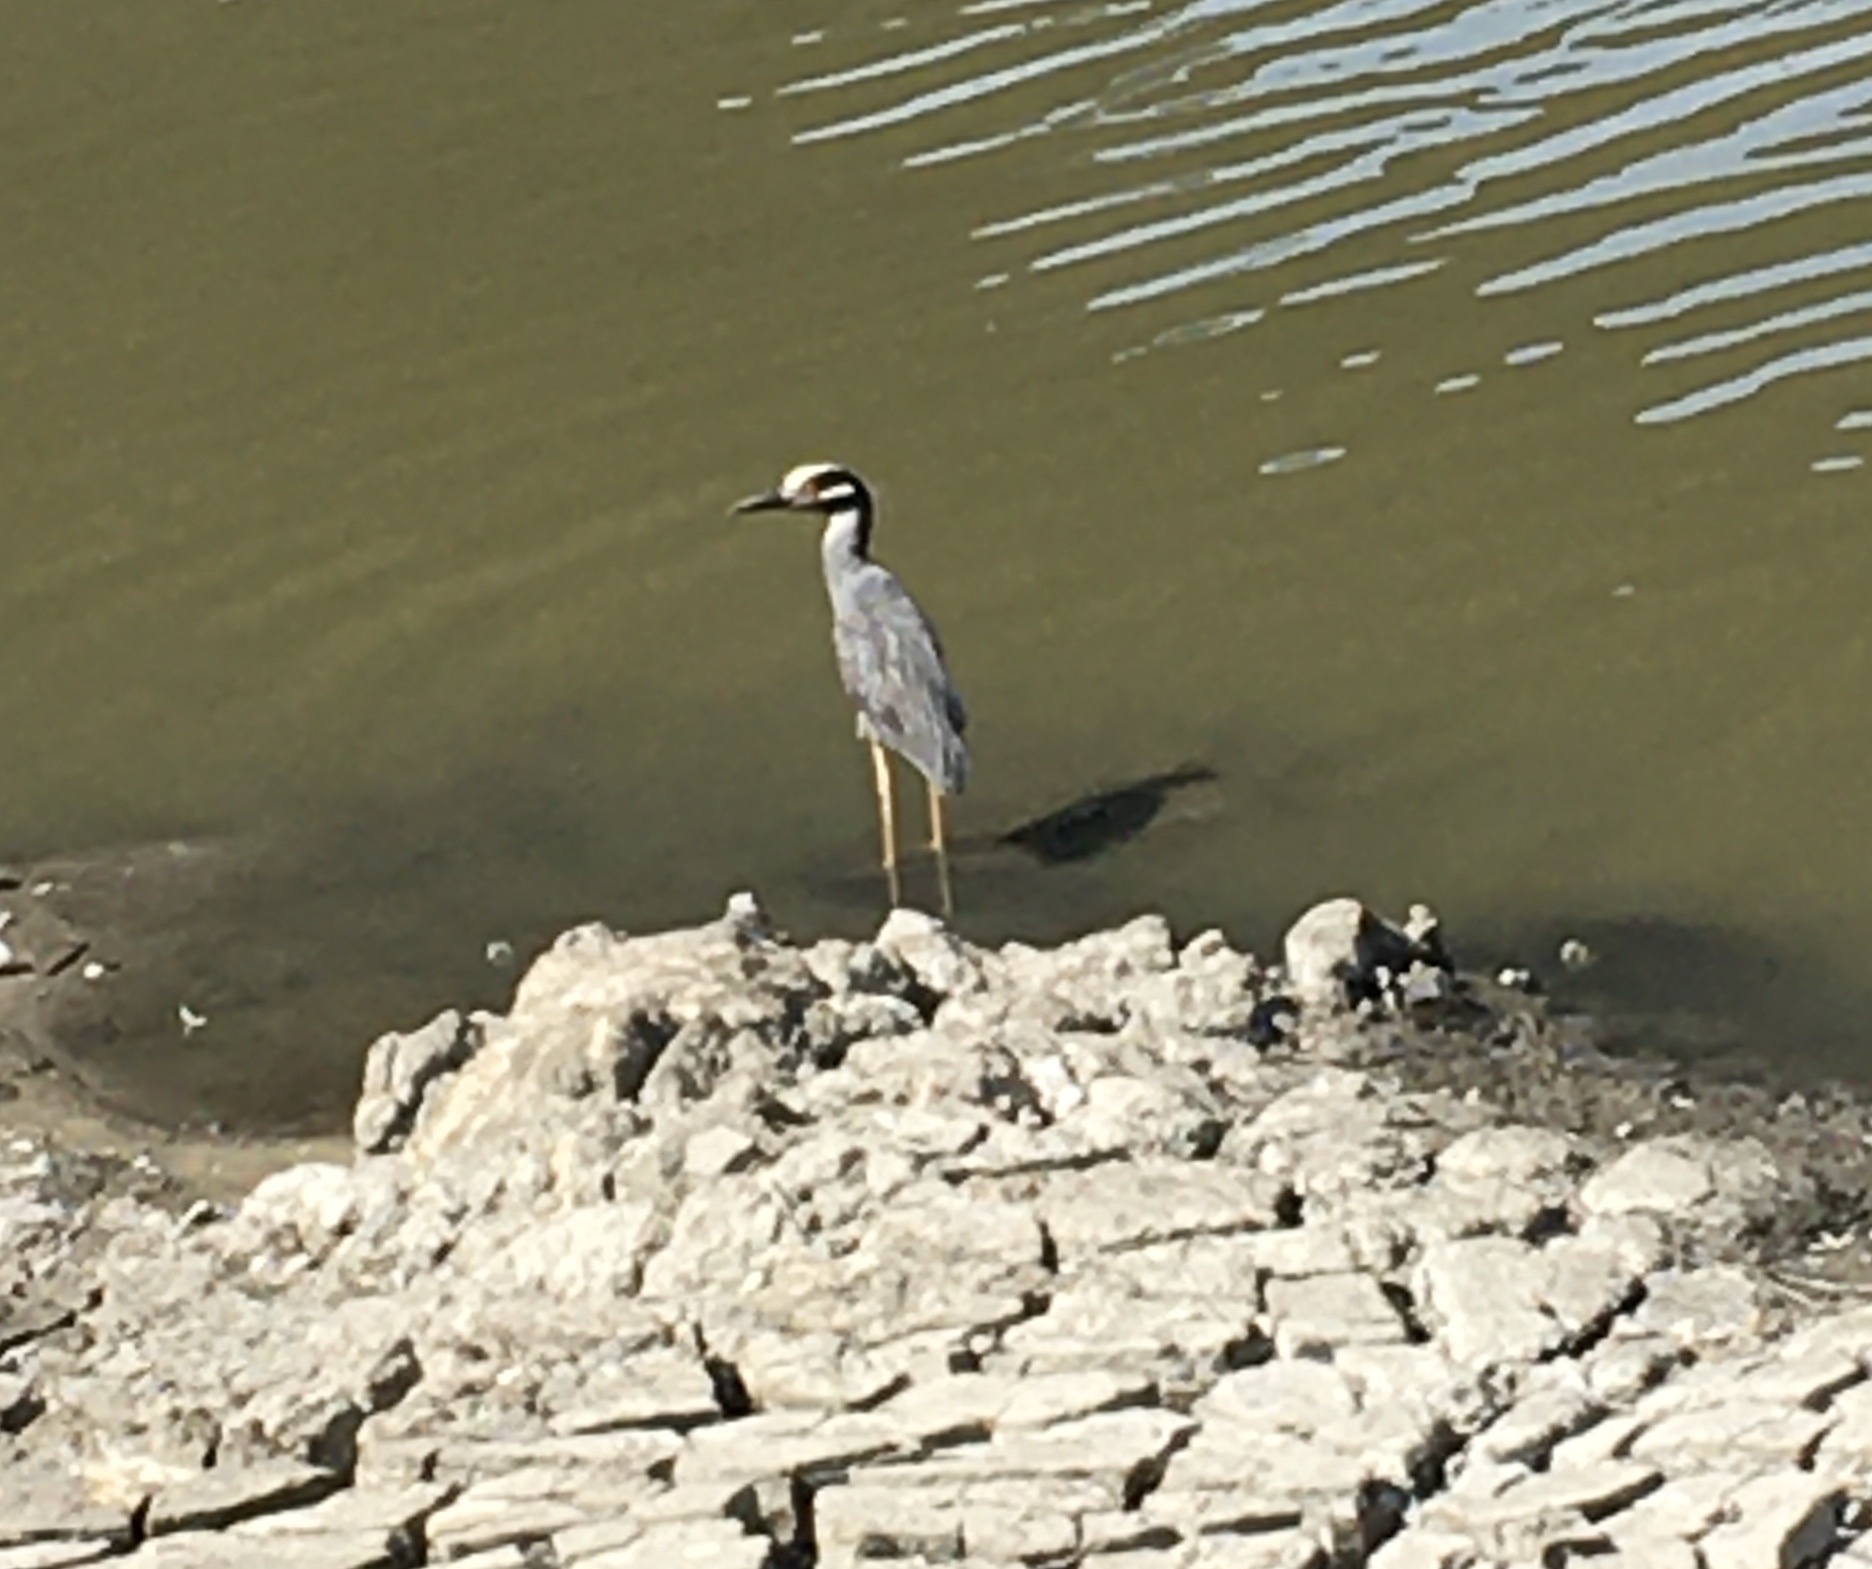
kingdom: Animalia
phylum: Chordata
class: Aves
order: Pelecaniformes
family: Ardeidae
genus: Nyctanassa
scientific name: Nyctanassa violacea
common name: Yellow-crowned night heron
